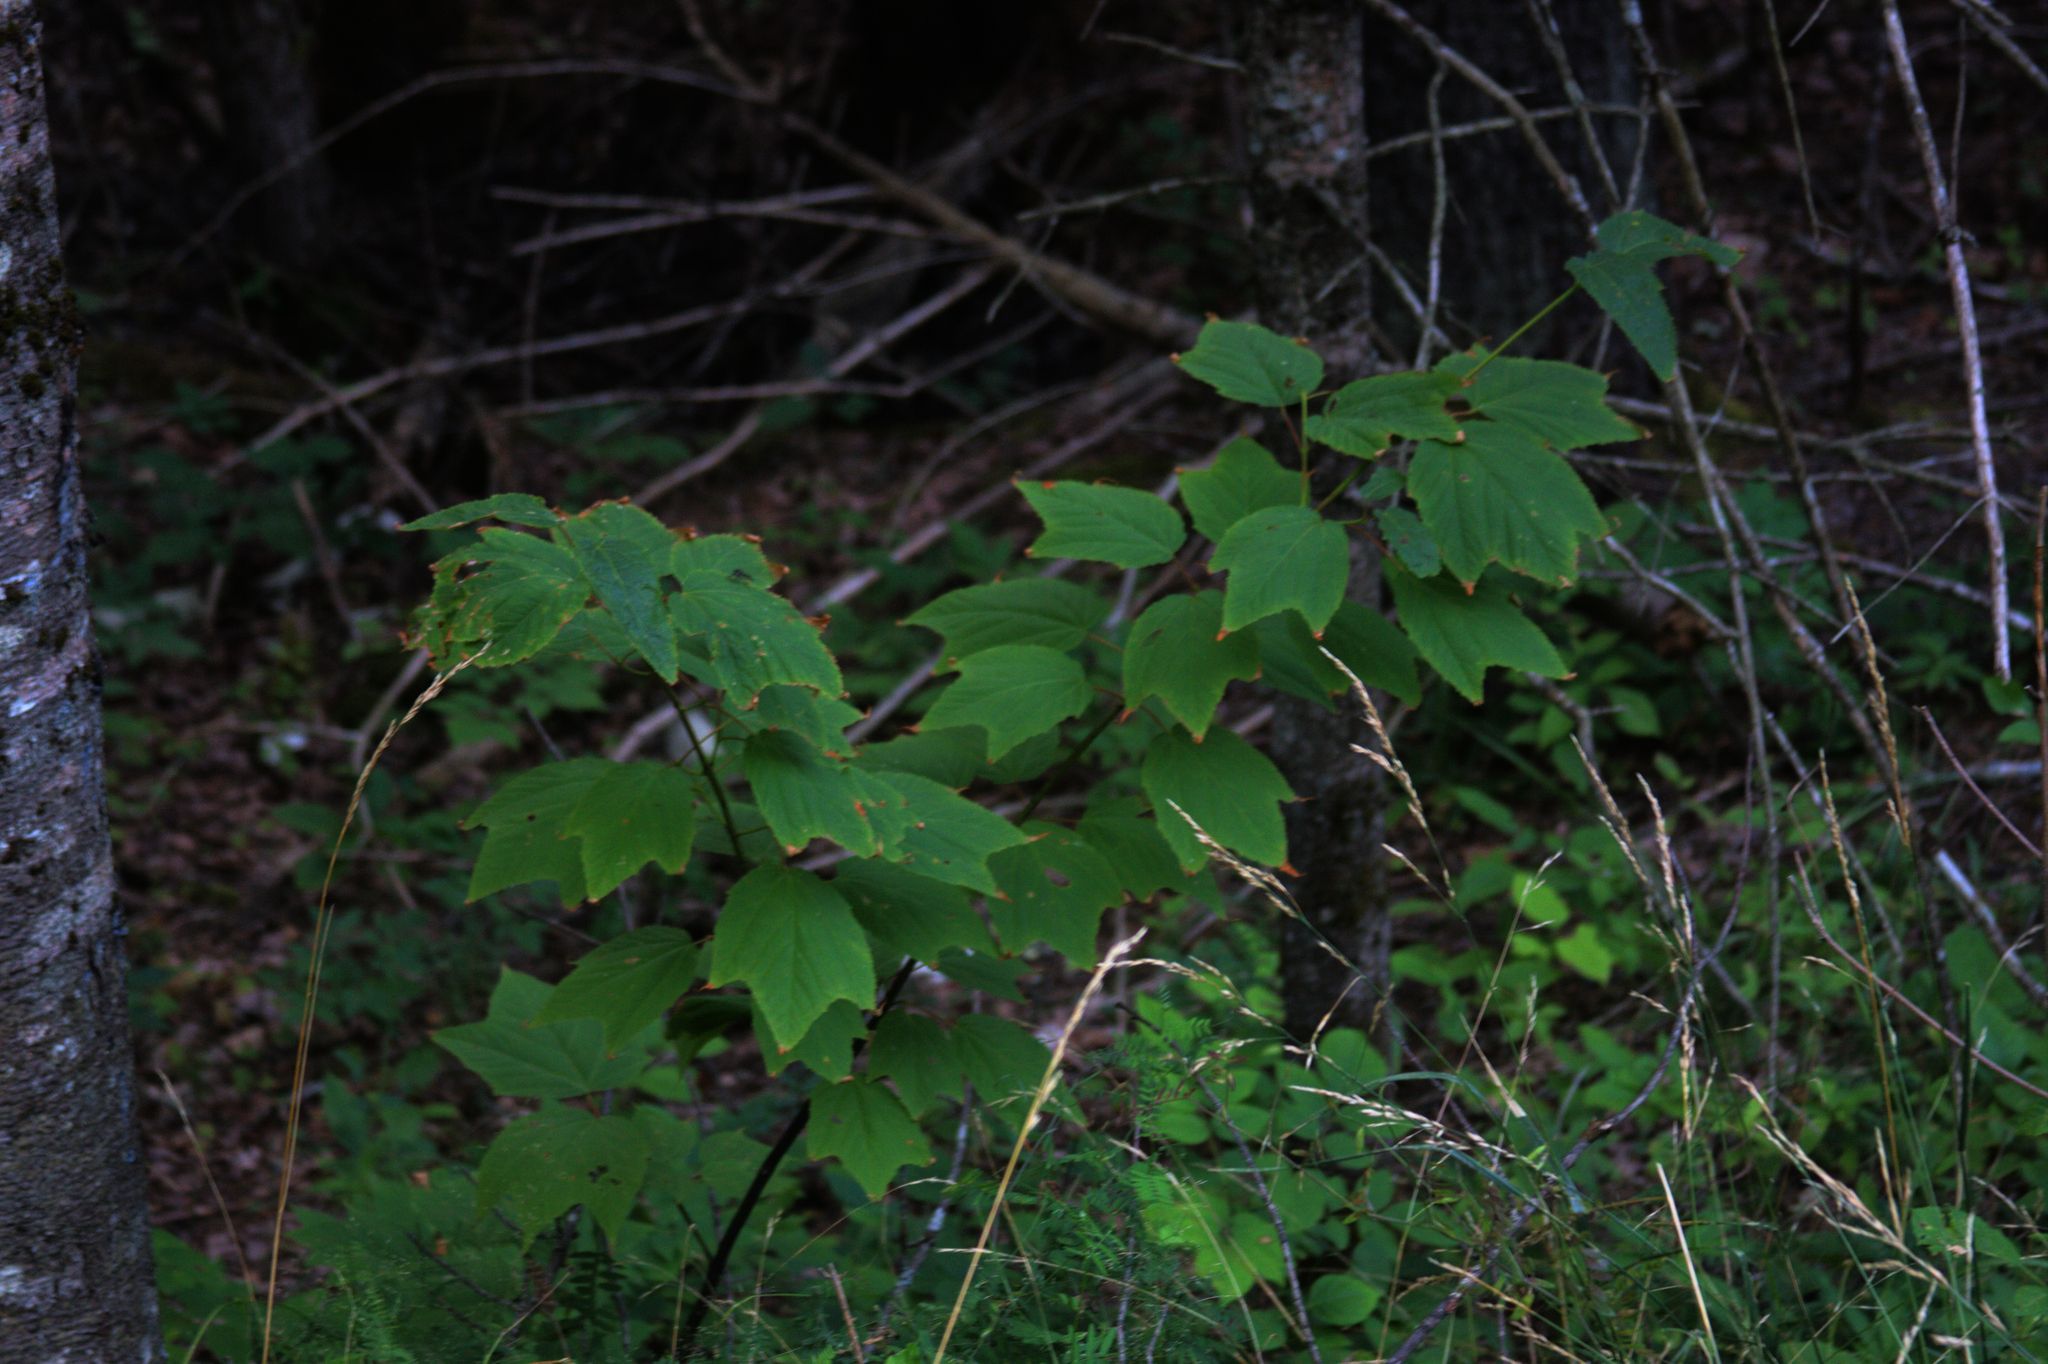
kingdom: Plantae
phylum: Tracheophyta
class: Magnoliopsida
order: Sapindales
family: Sapindaceae
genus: Acer
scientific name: Acer pensylvanicum
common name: Moosewood
